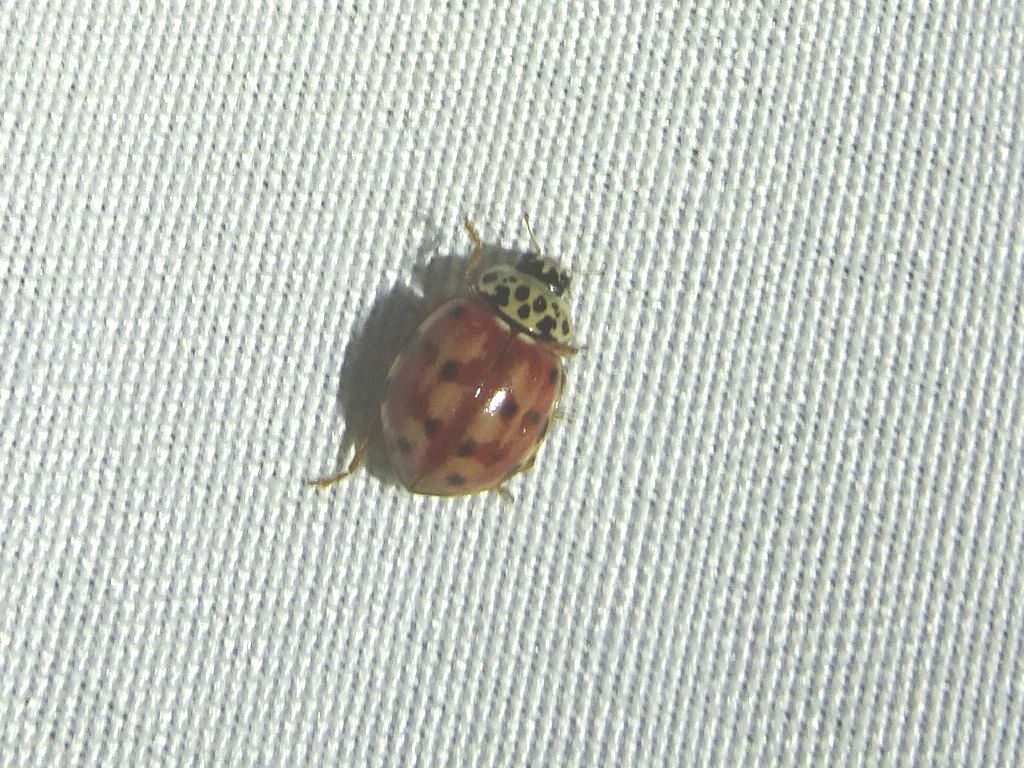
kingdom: Animalia
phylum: Arthropoda
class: Insecta
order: Coleoptera
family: Coccinellidae
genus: Harmonia
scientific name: Harmonia quadripunctata
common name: Cream-streaked ladybird
